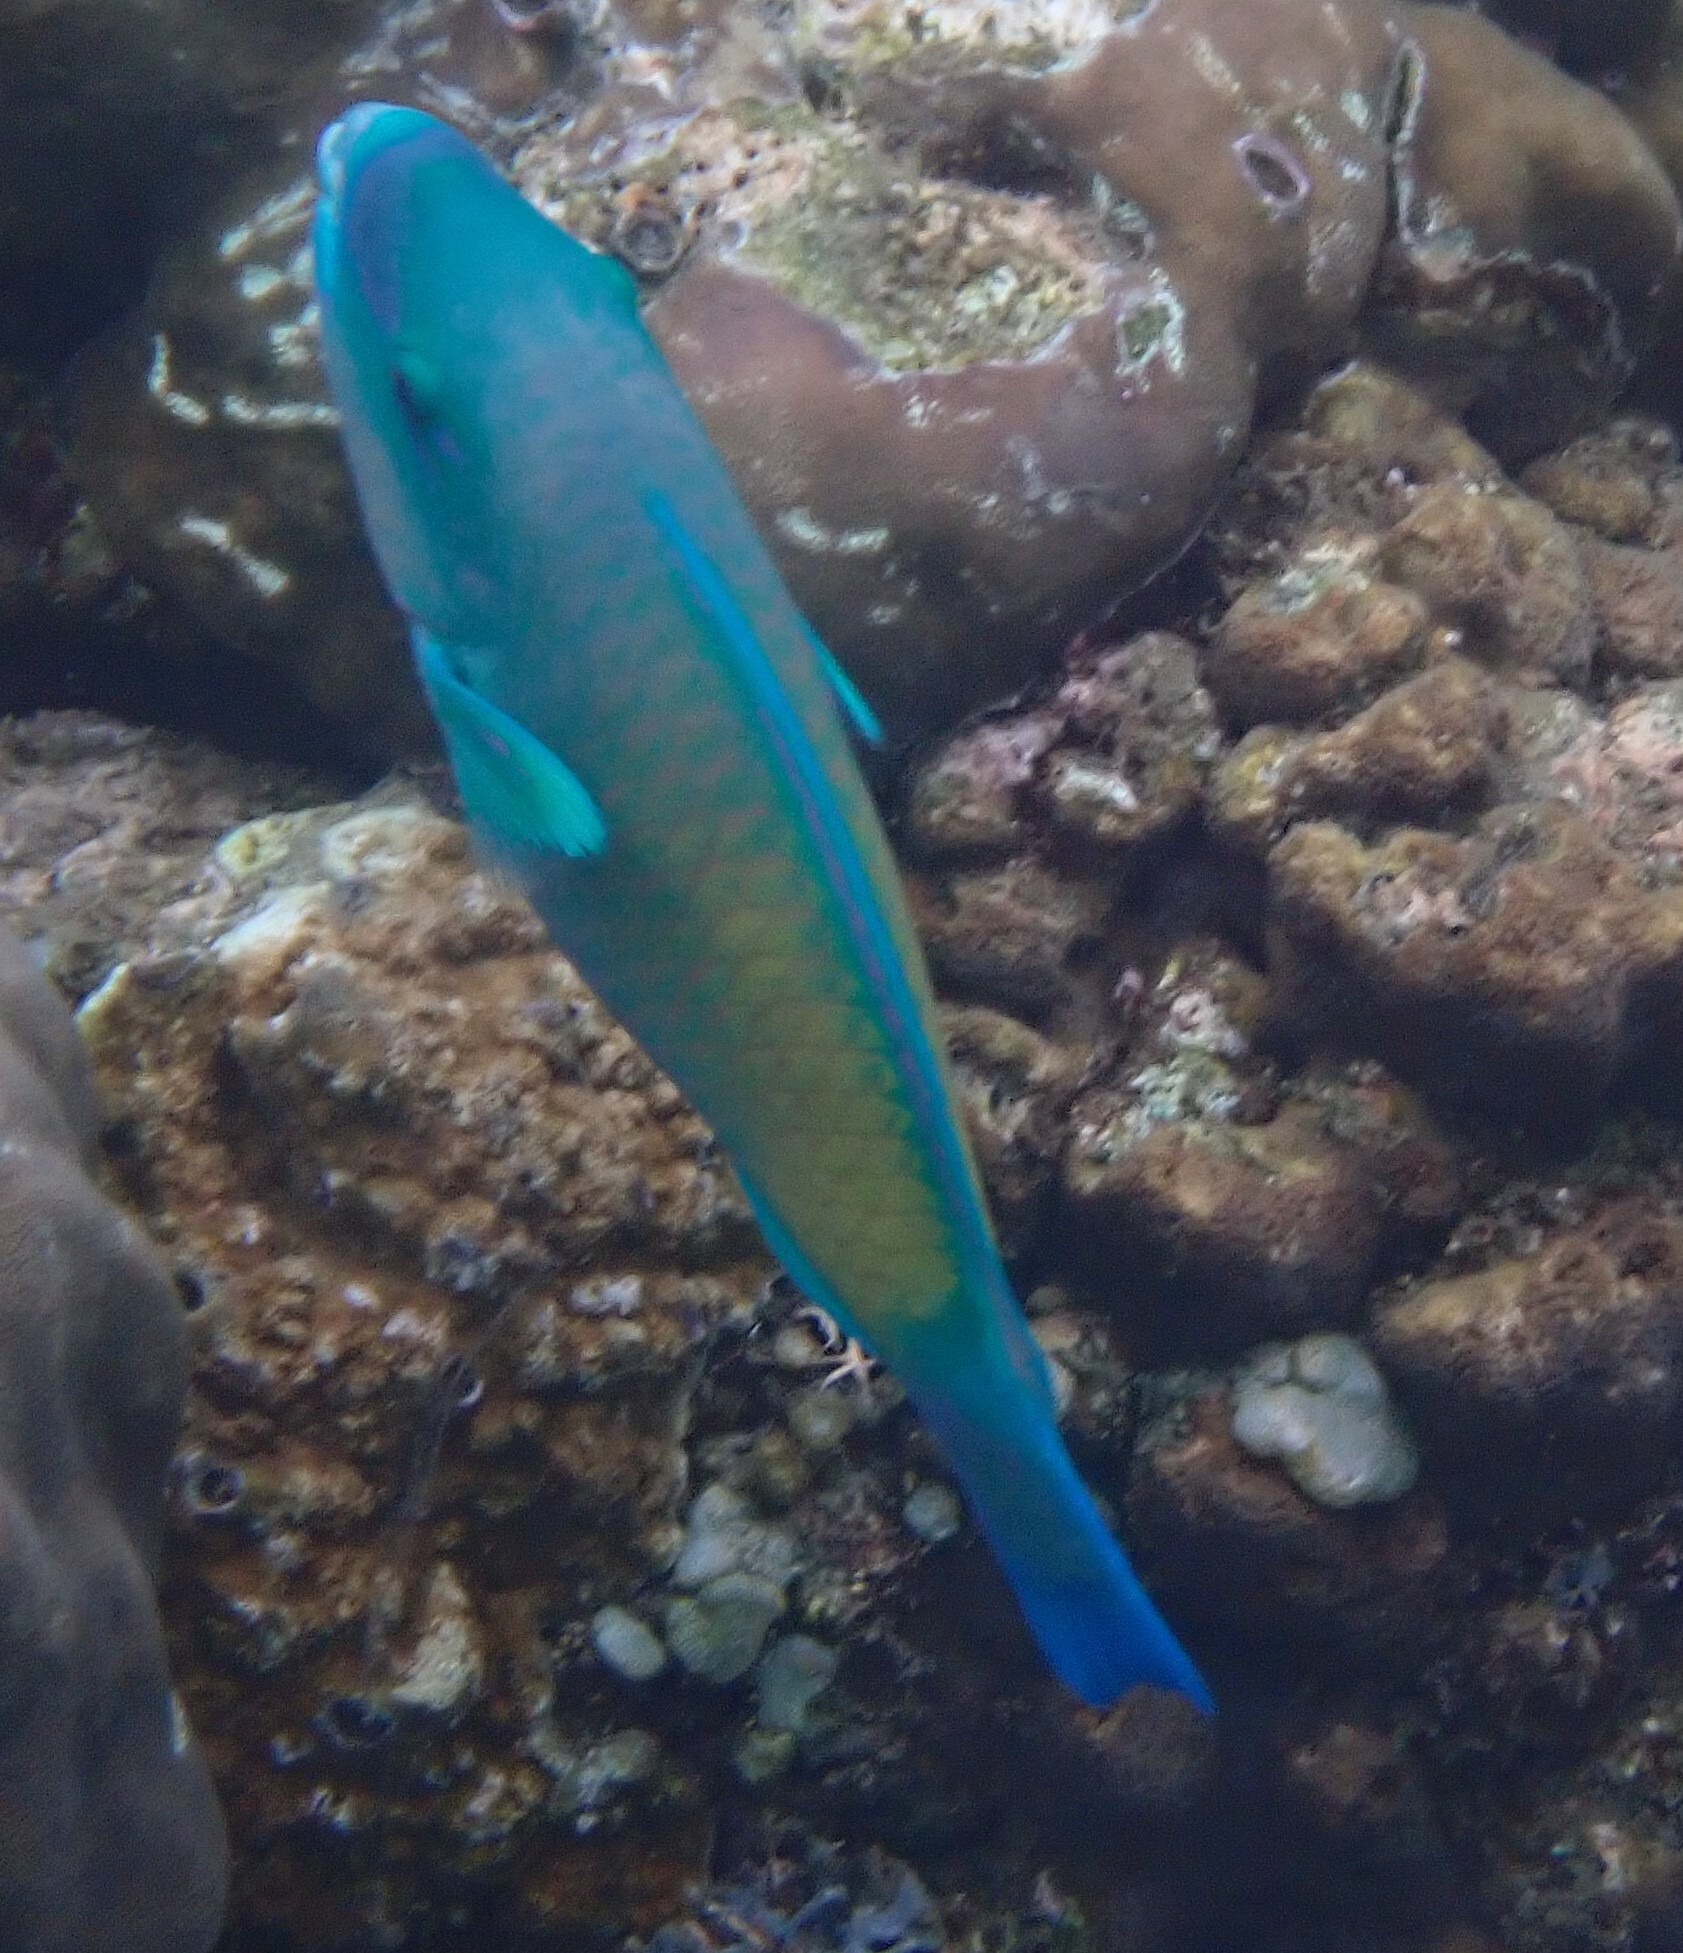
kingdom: Animalia
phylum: Chordata
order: Perciformes
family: Scaridae
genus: Chlorurus
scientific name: Chlorurus spilurus
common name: Bullethead parrotfish
